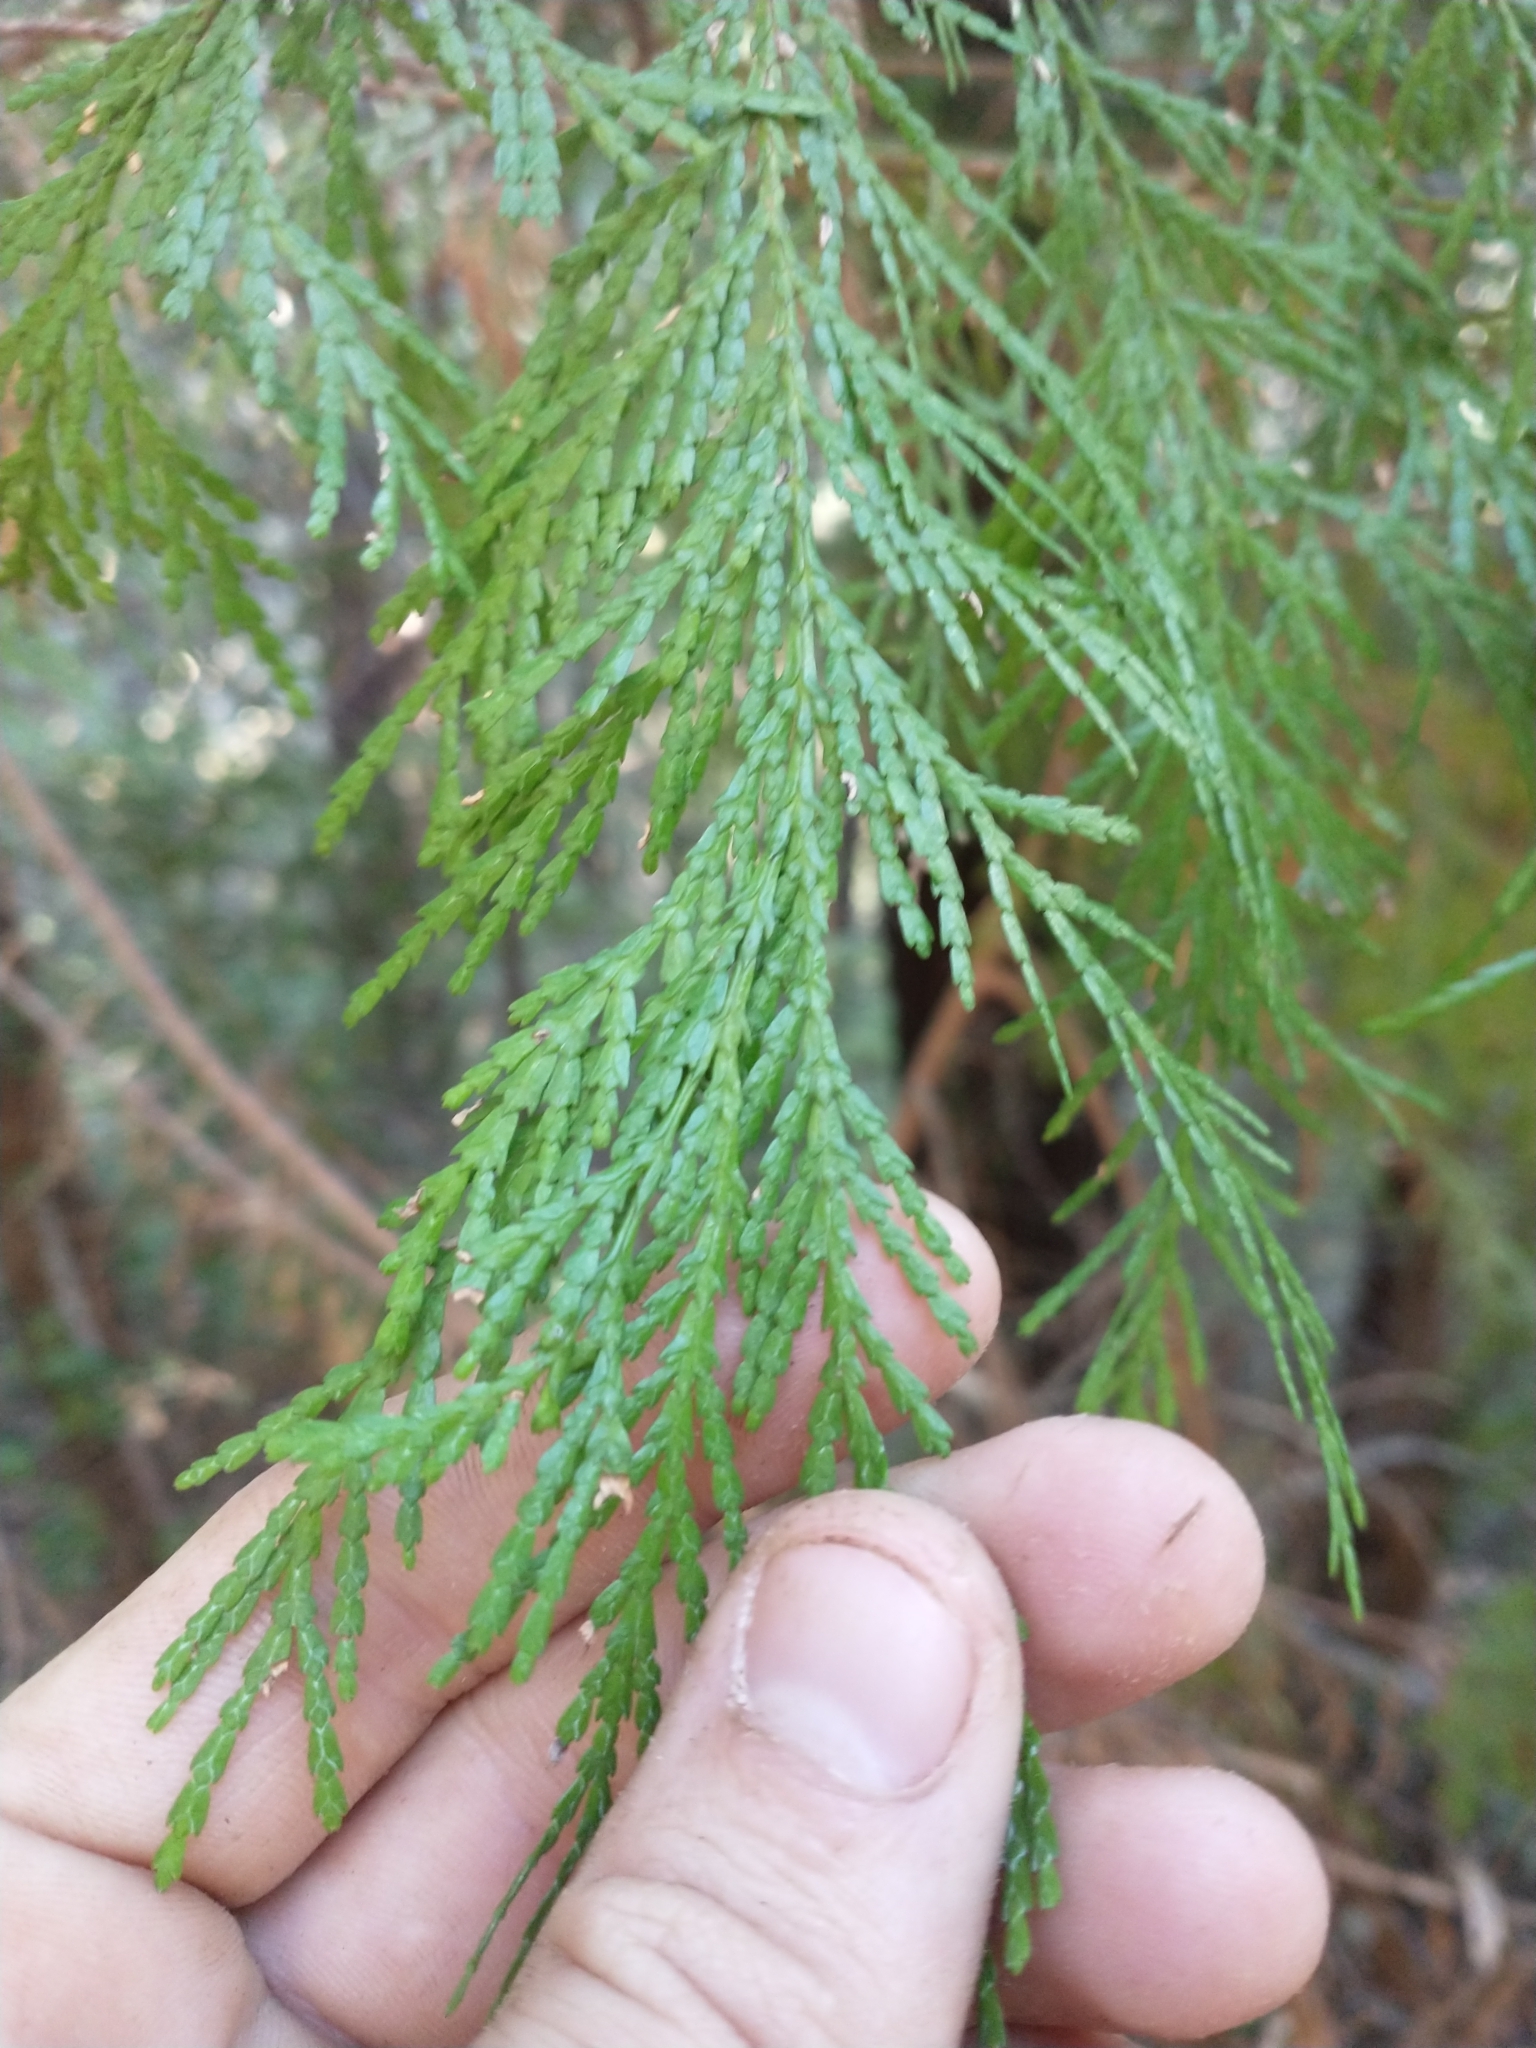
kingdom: Plantae
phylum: Tracheophyta
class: Pinopsida
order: Pinales
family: Cupressaceae
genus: Chamaecyparis
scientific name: Chamaecyparis lawsoniana
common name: Lawson's cypress
